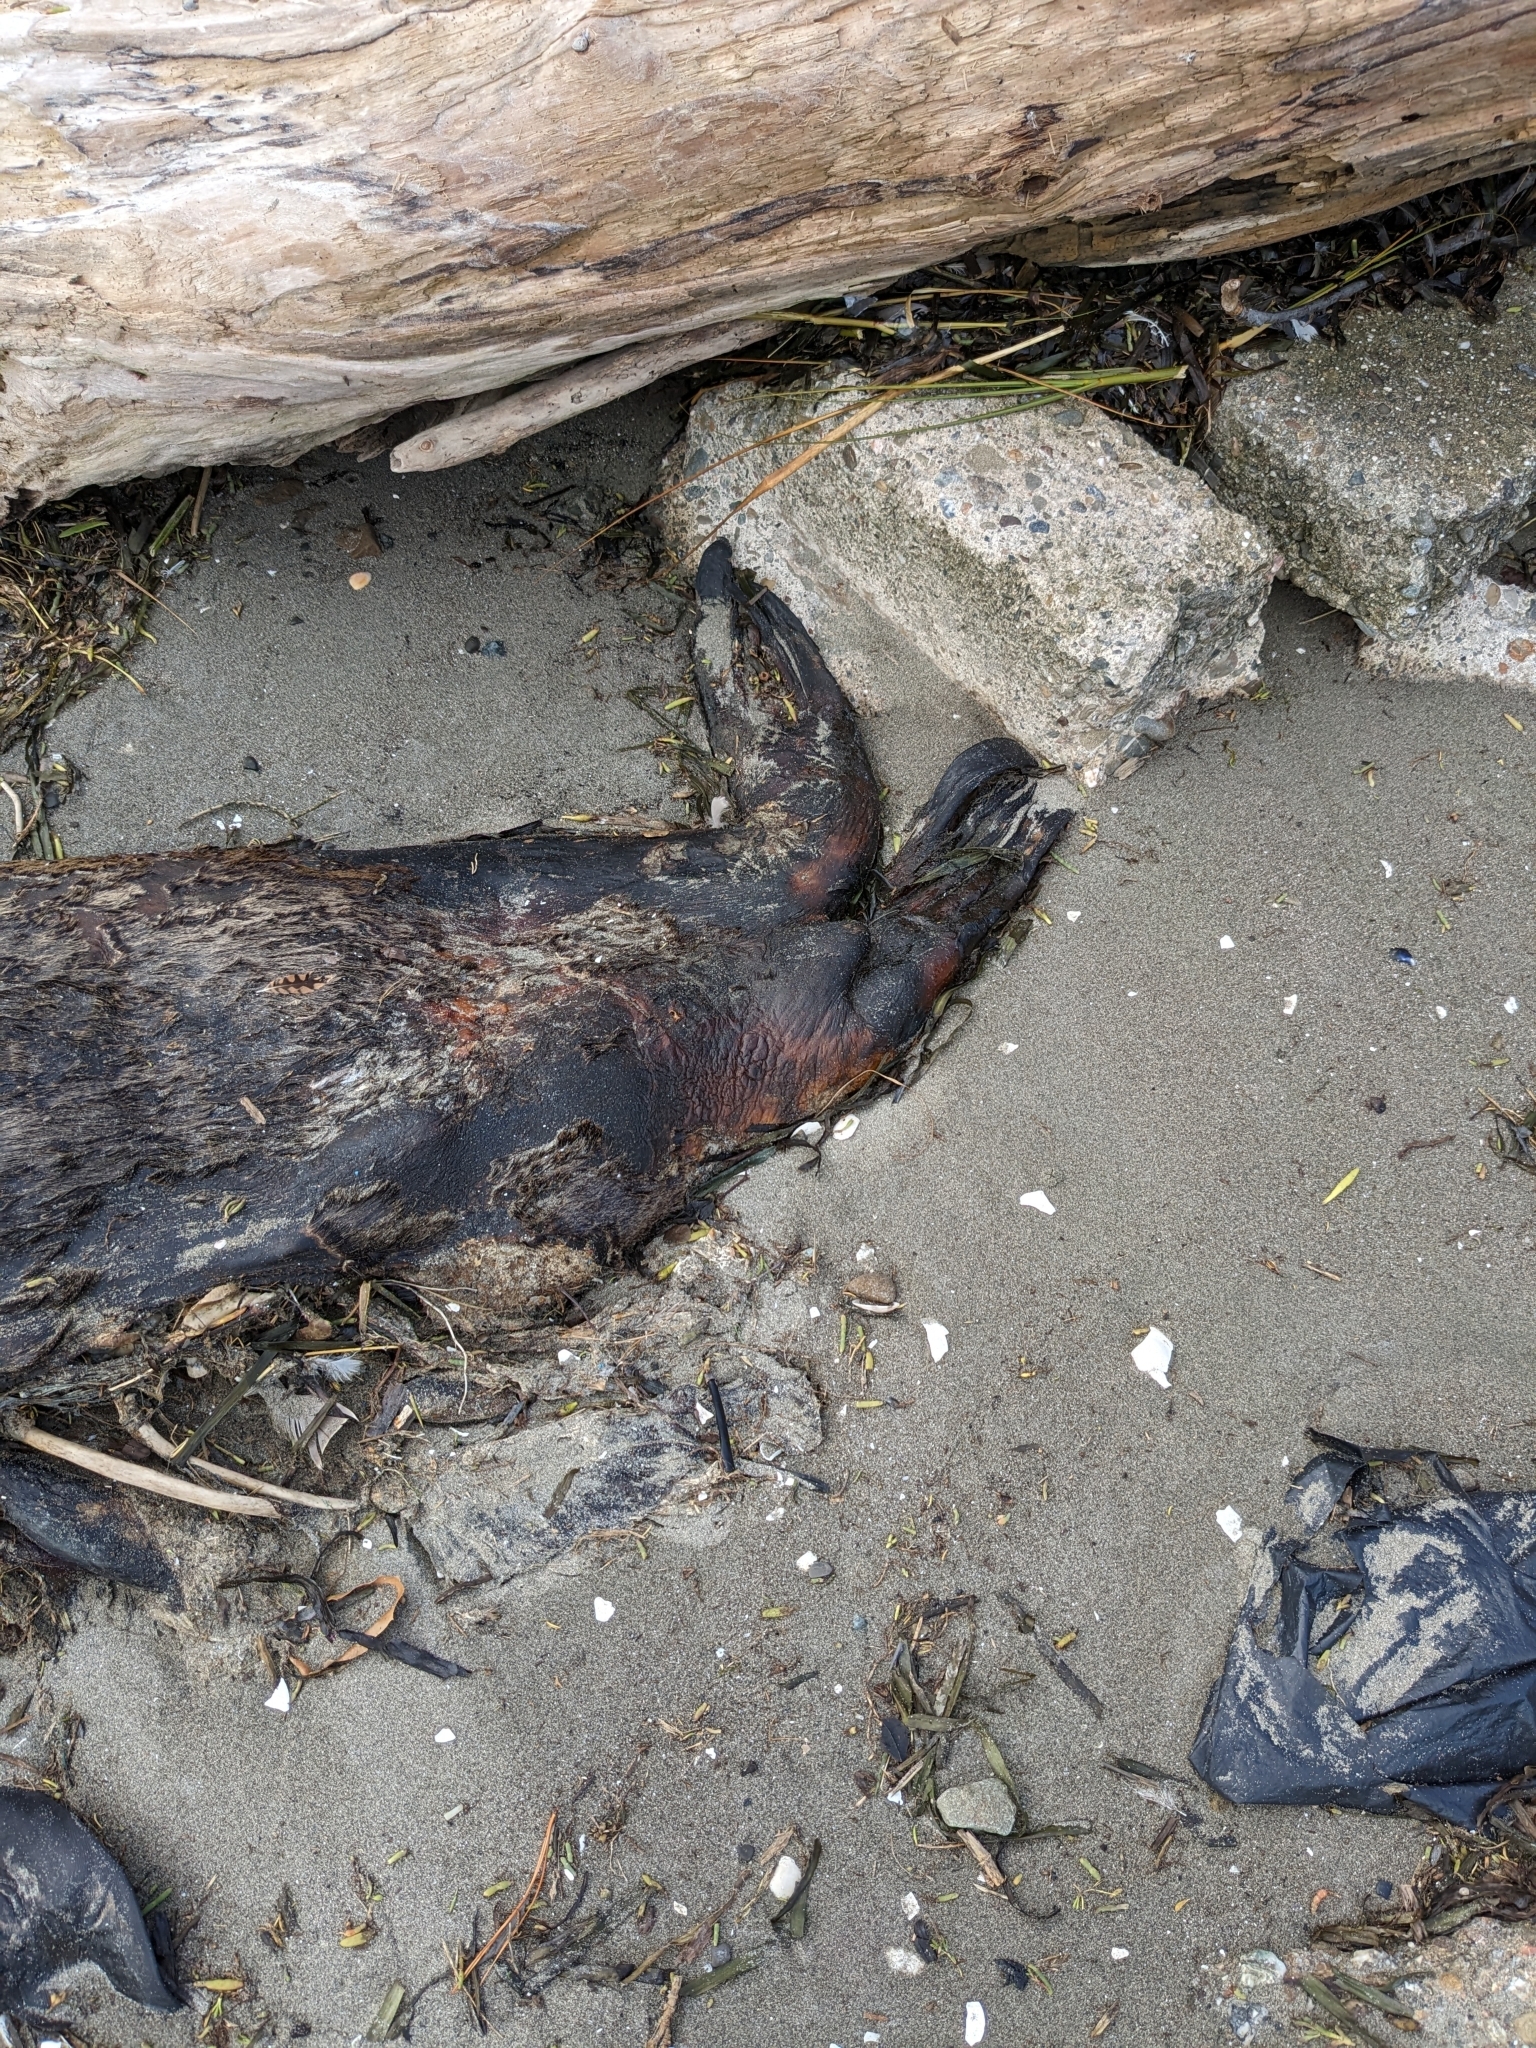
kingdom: Animalia
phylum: Chordata
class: Mammalia
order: Carnivora
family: Otariidae
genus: Zalophus
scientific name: Zalophus californianus
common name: California sea lion
